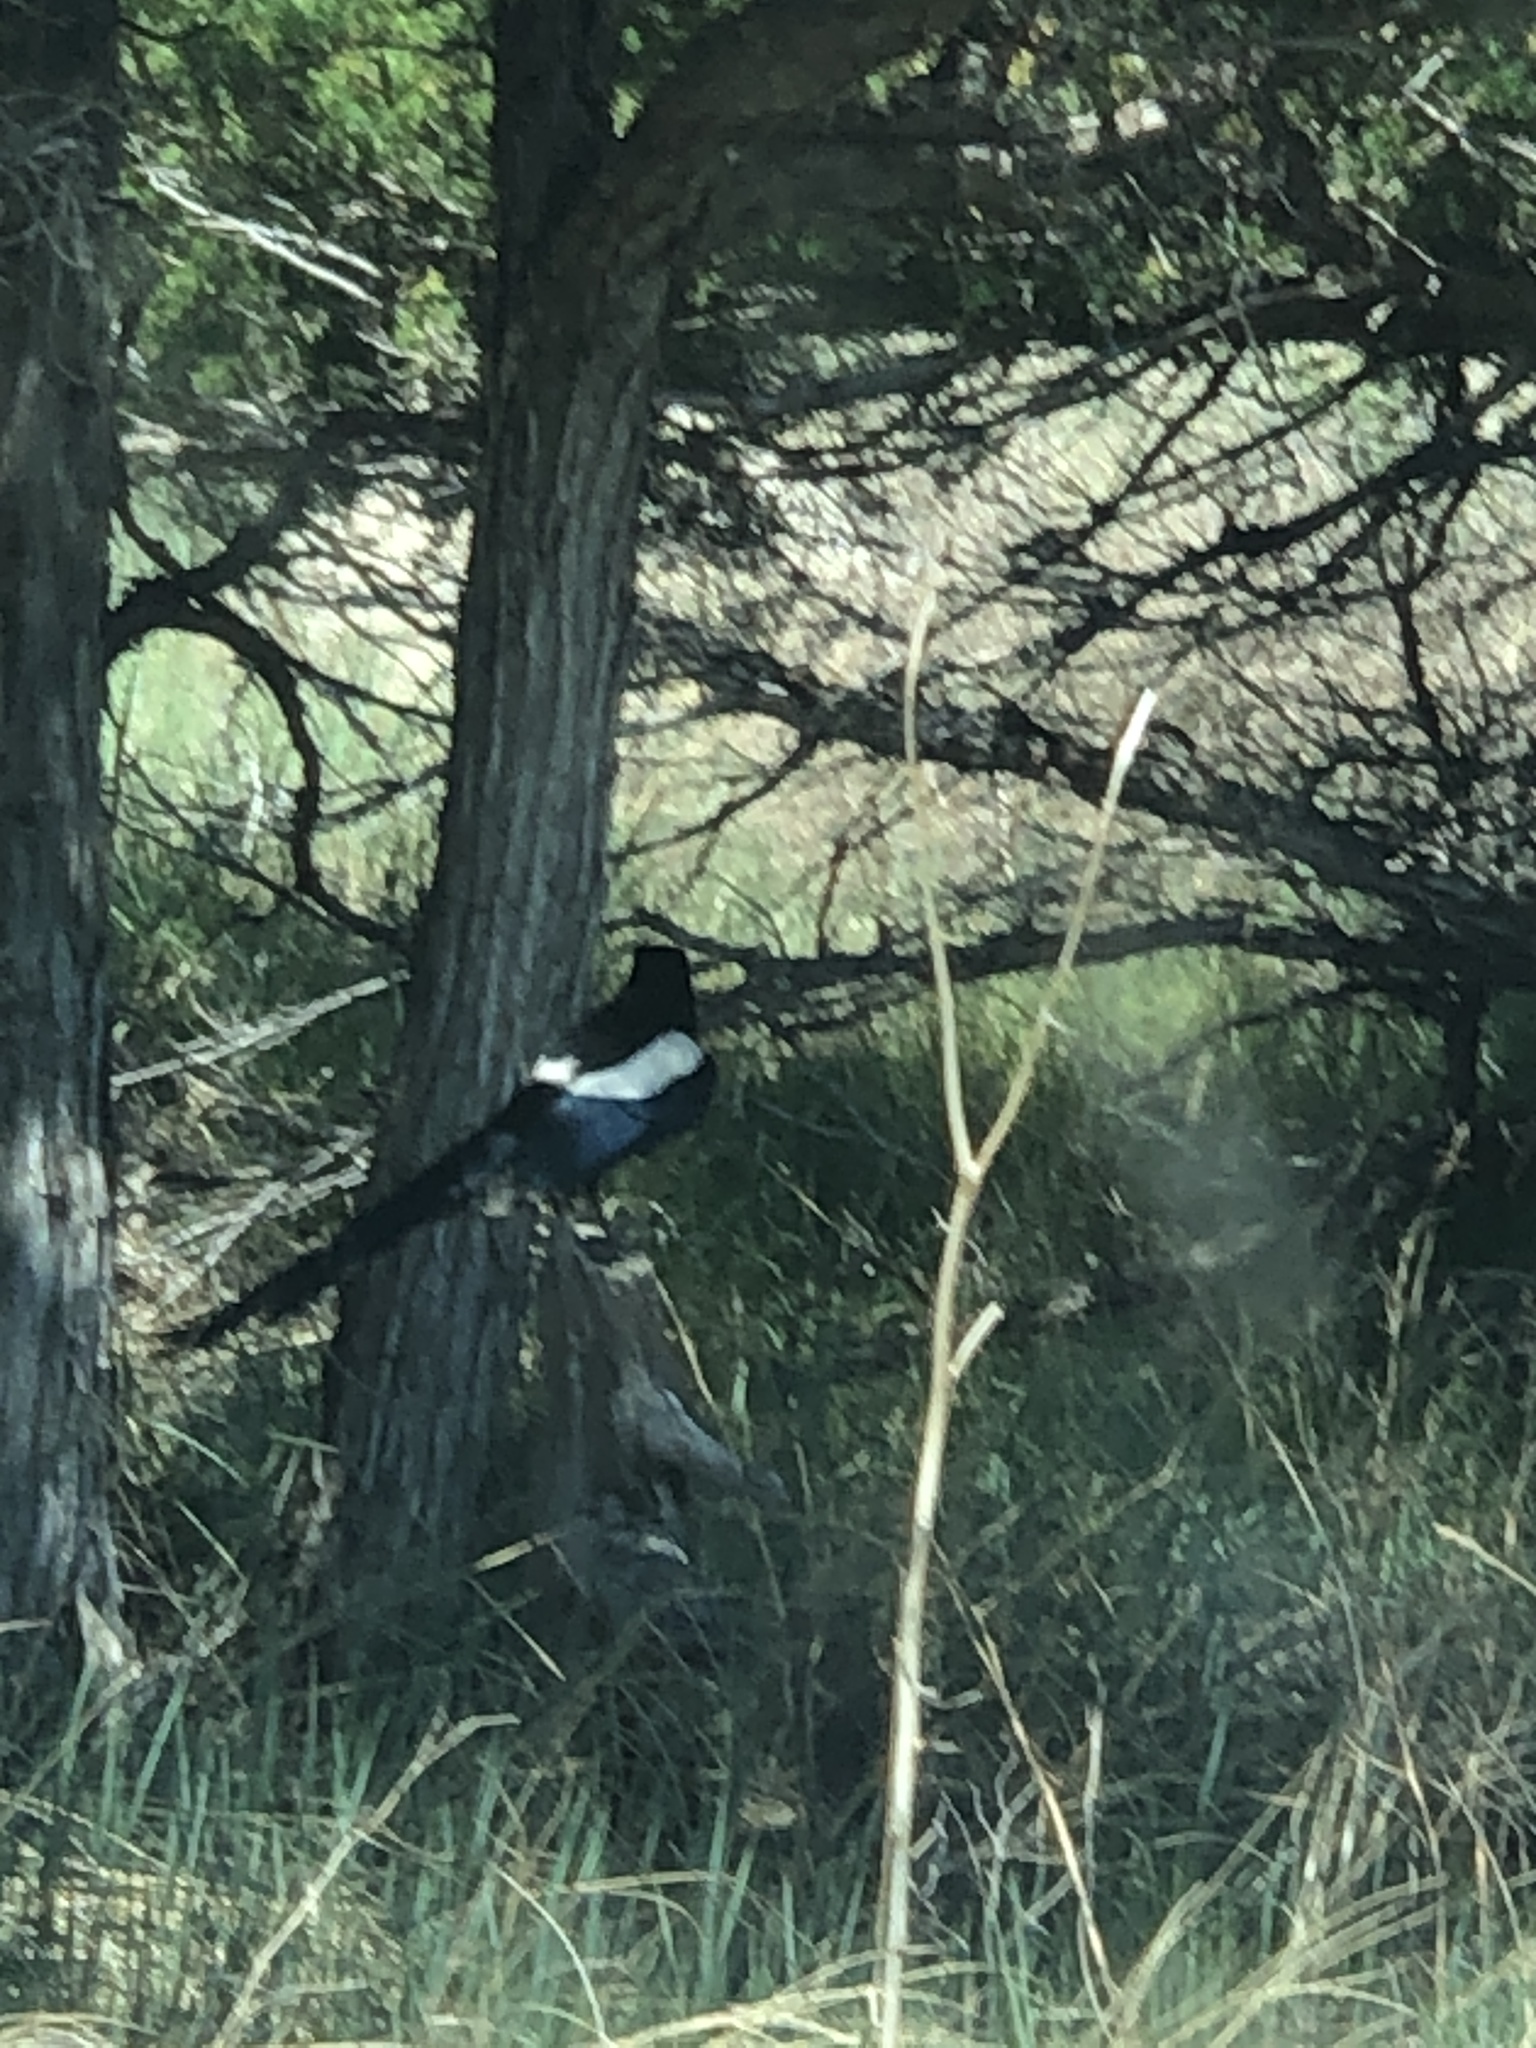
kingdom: Animalia
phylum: Chordata
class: Aves
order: Passeriformes
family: Corvidae
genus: Pica
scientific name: Pica hudsonia
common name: Black-billed magpie
